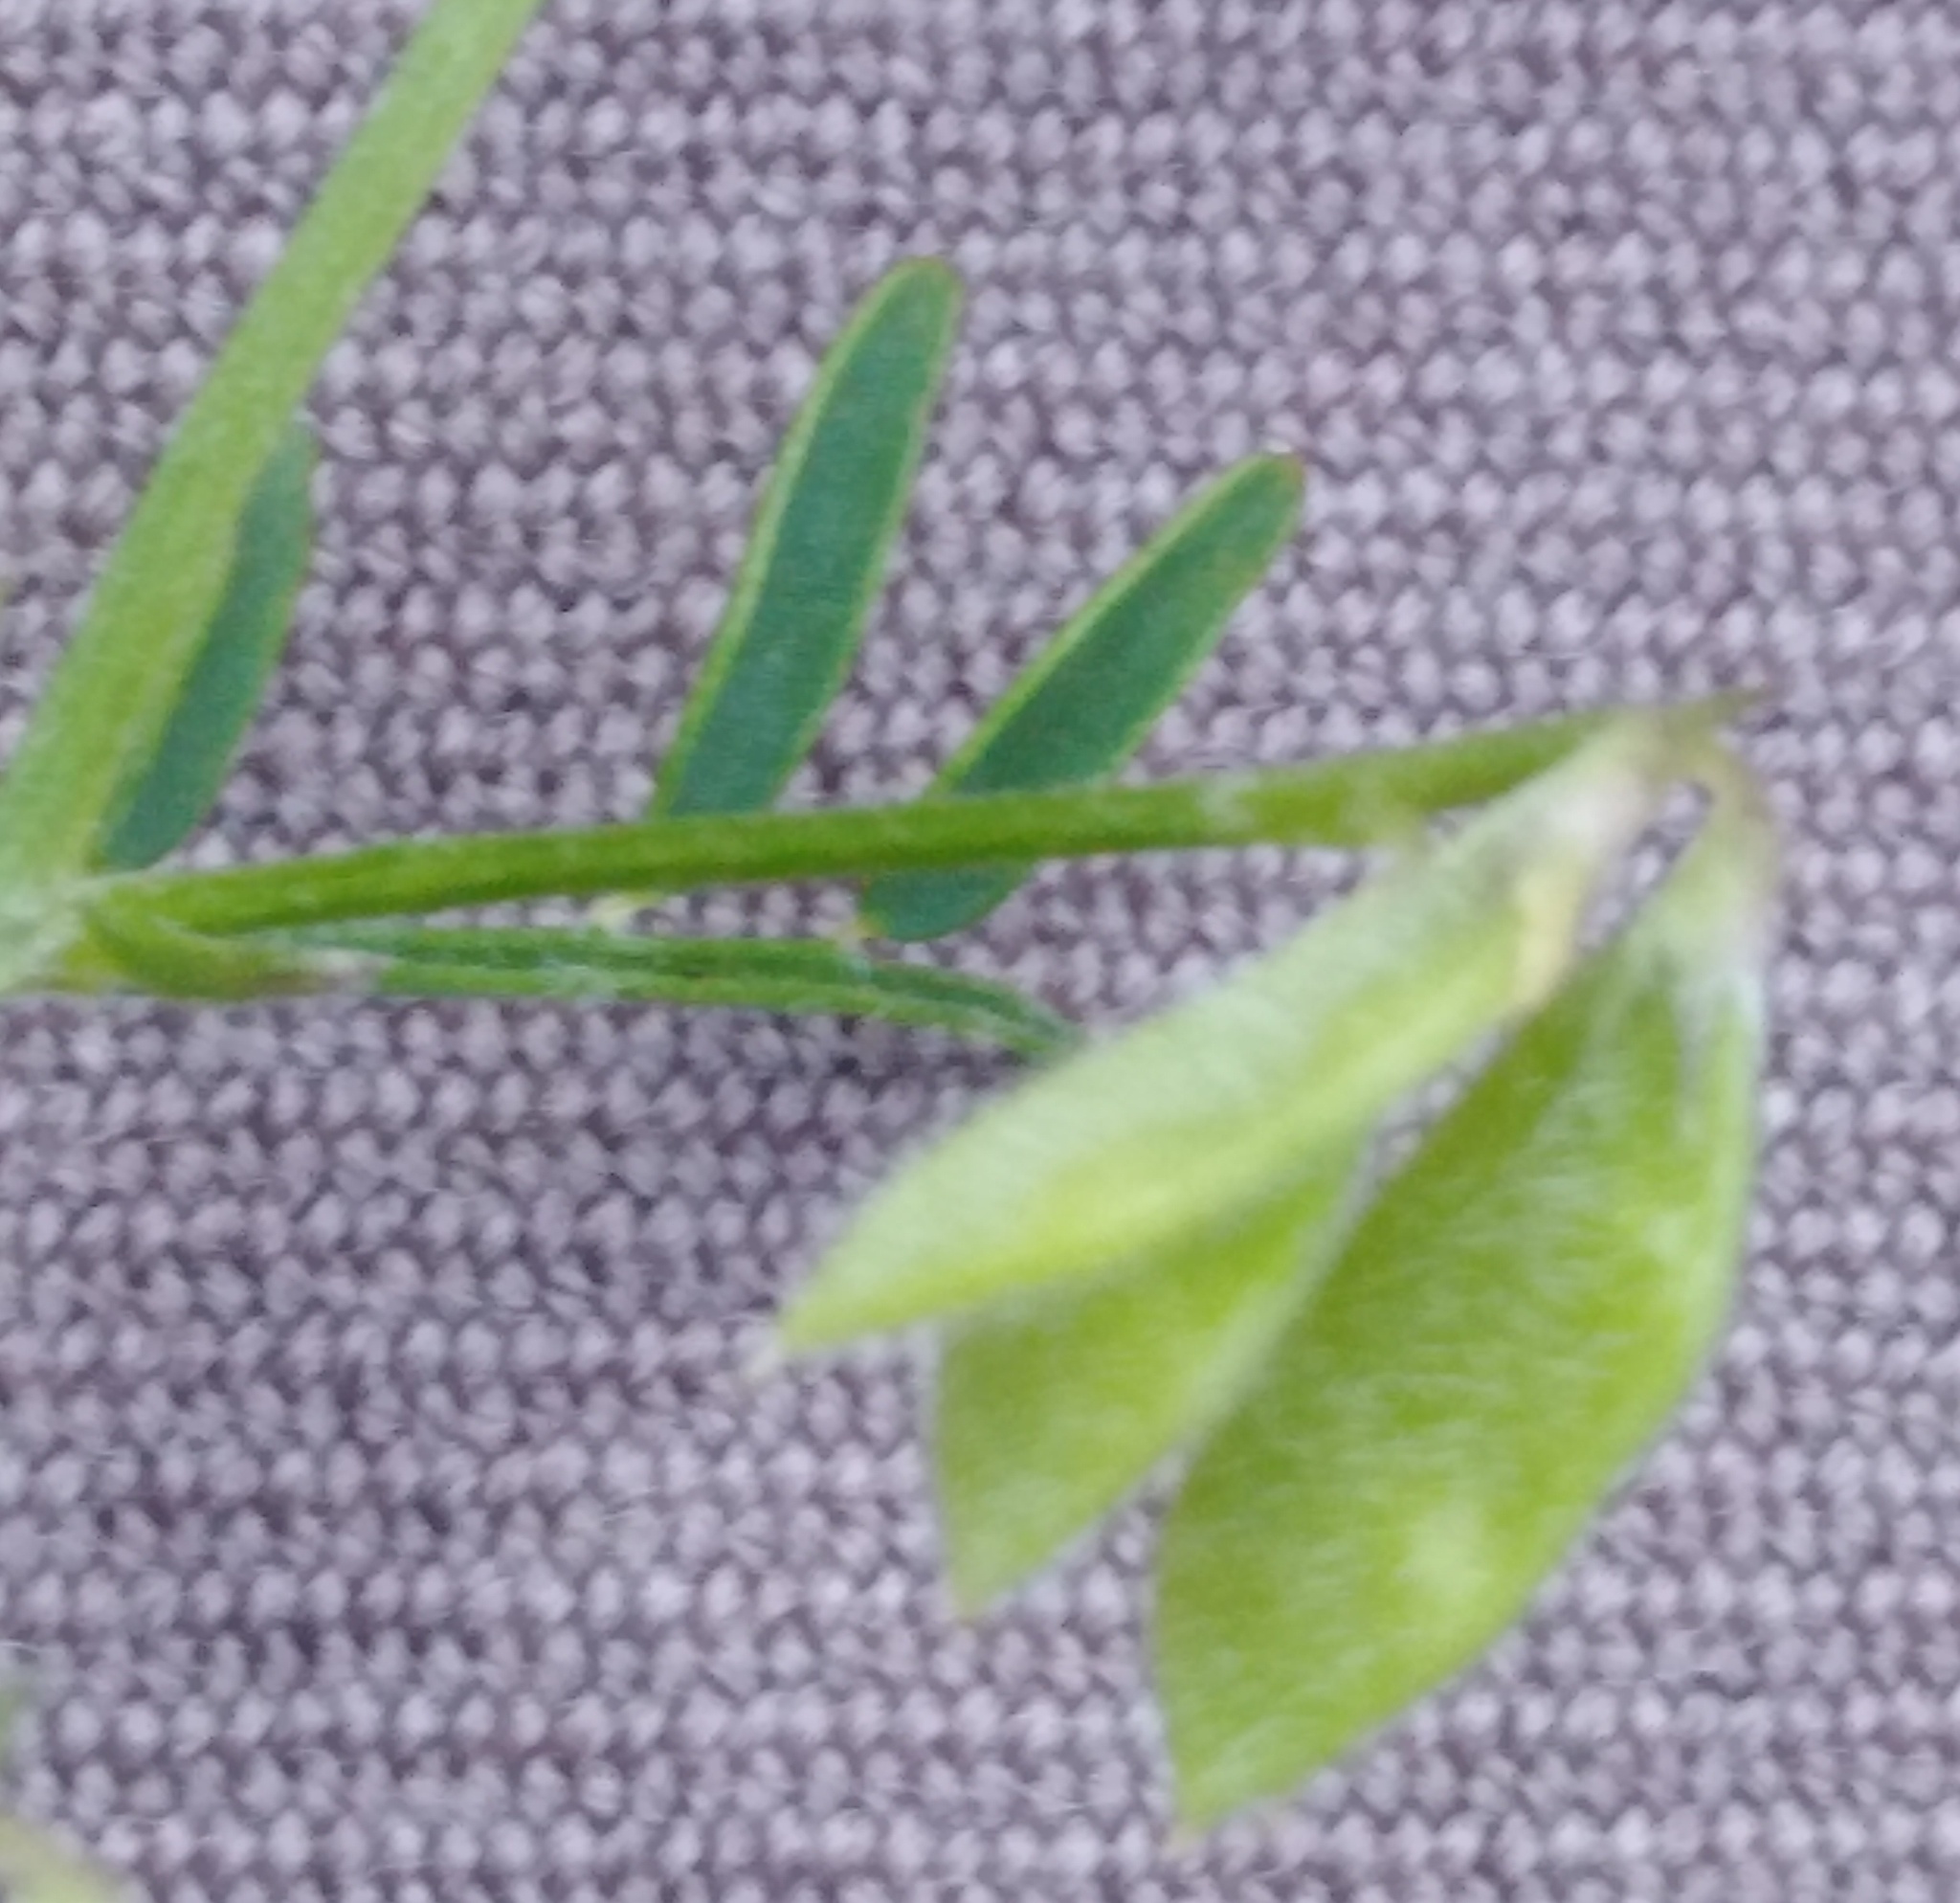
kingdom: Plantae
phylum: Tracheophyta
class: Magnoliopsida
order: Fabales
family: Fabaceae
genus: Vicia
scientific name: Vicia hirsuta
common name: Tiny vetch
